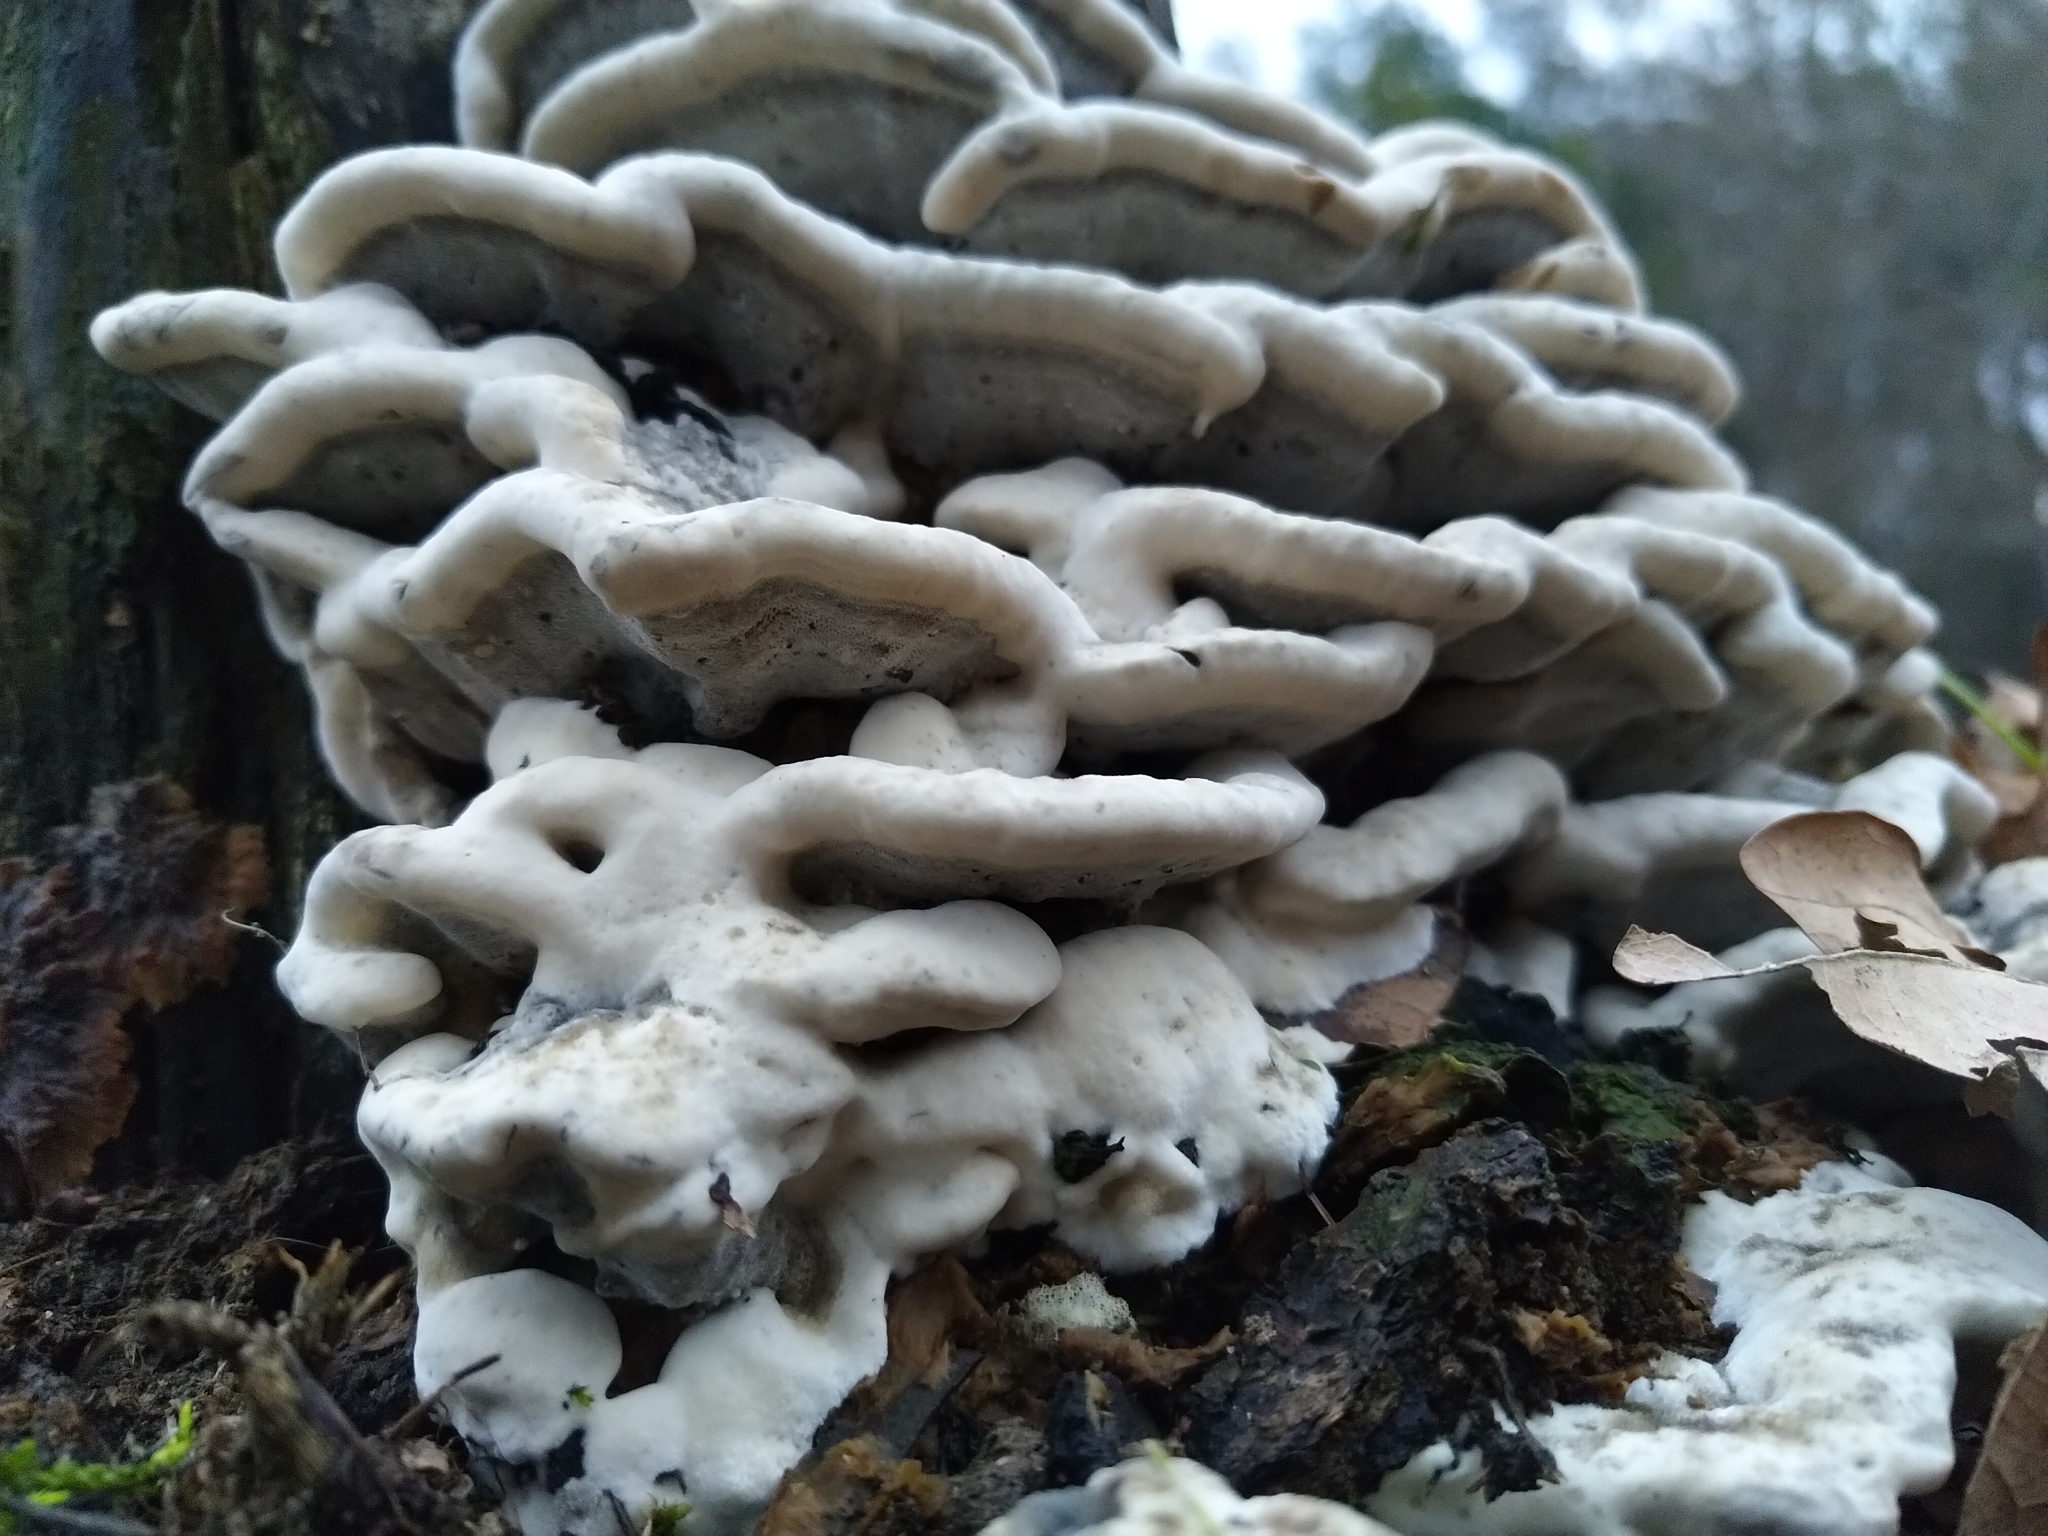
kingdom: Fungi
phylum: Basidiomycota
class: Agaricomycetes
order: Polyporales
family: Phanerochaetaceae
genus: Bjerkandera
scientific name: Bjerkandera adusta
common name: Smoky bracket
